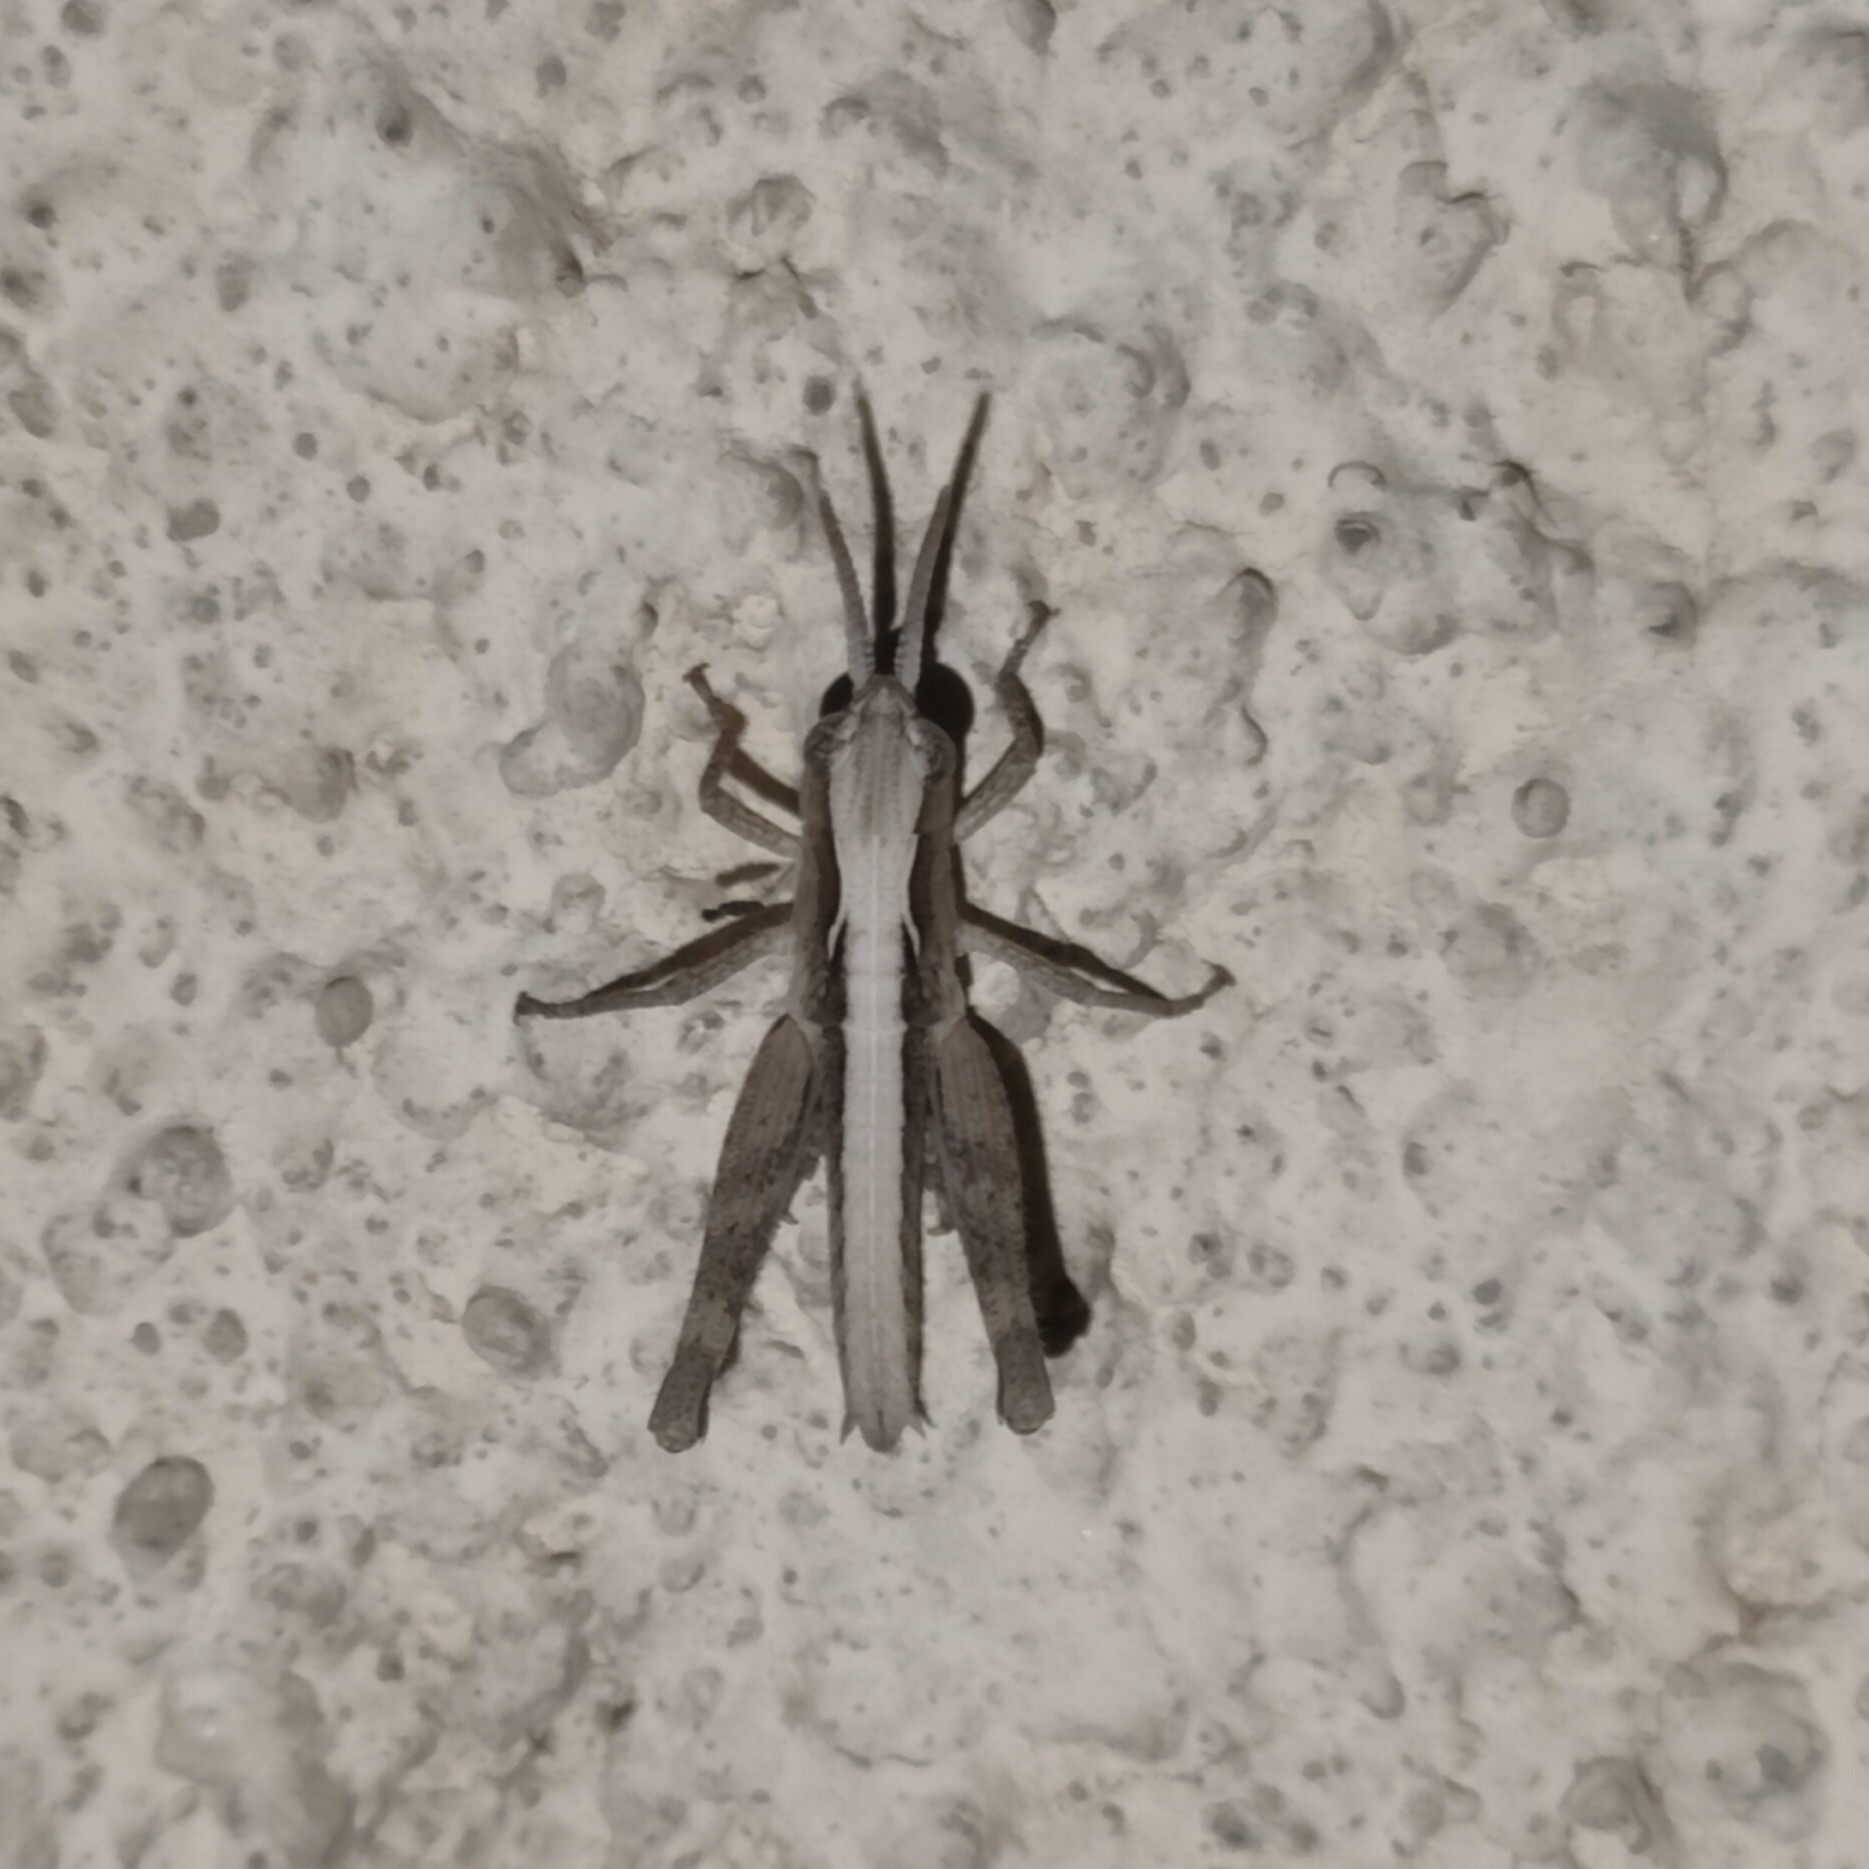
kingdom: Animalia
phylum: Arthropoda
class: Insecta
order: Orthoptera
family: Acrididae
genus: Chorthippus
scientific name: Chorthippus maritimus
